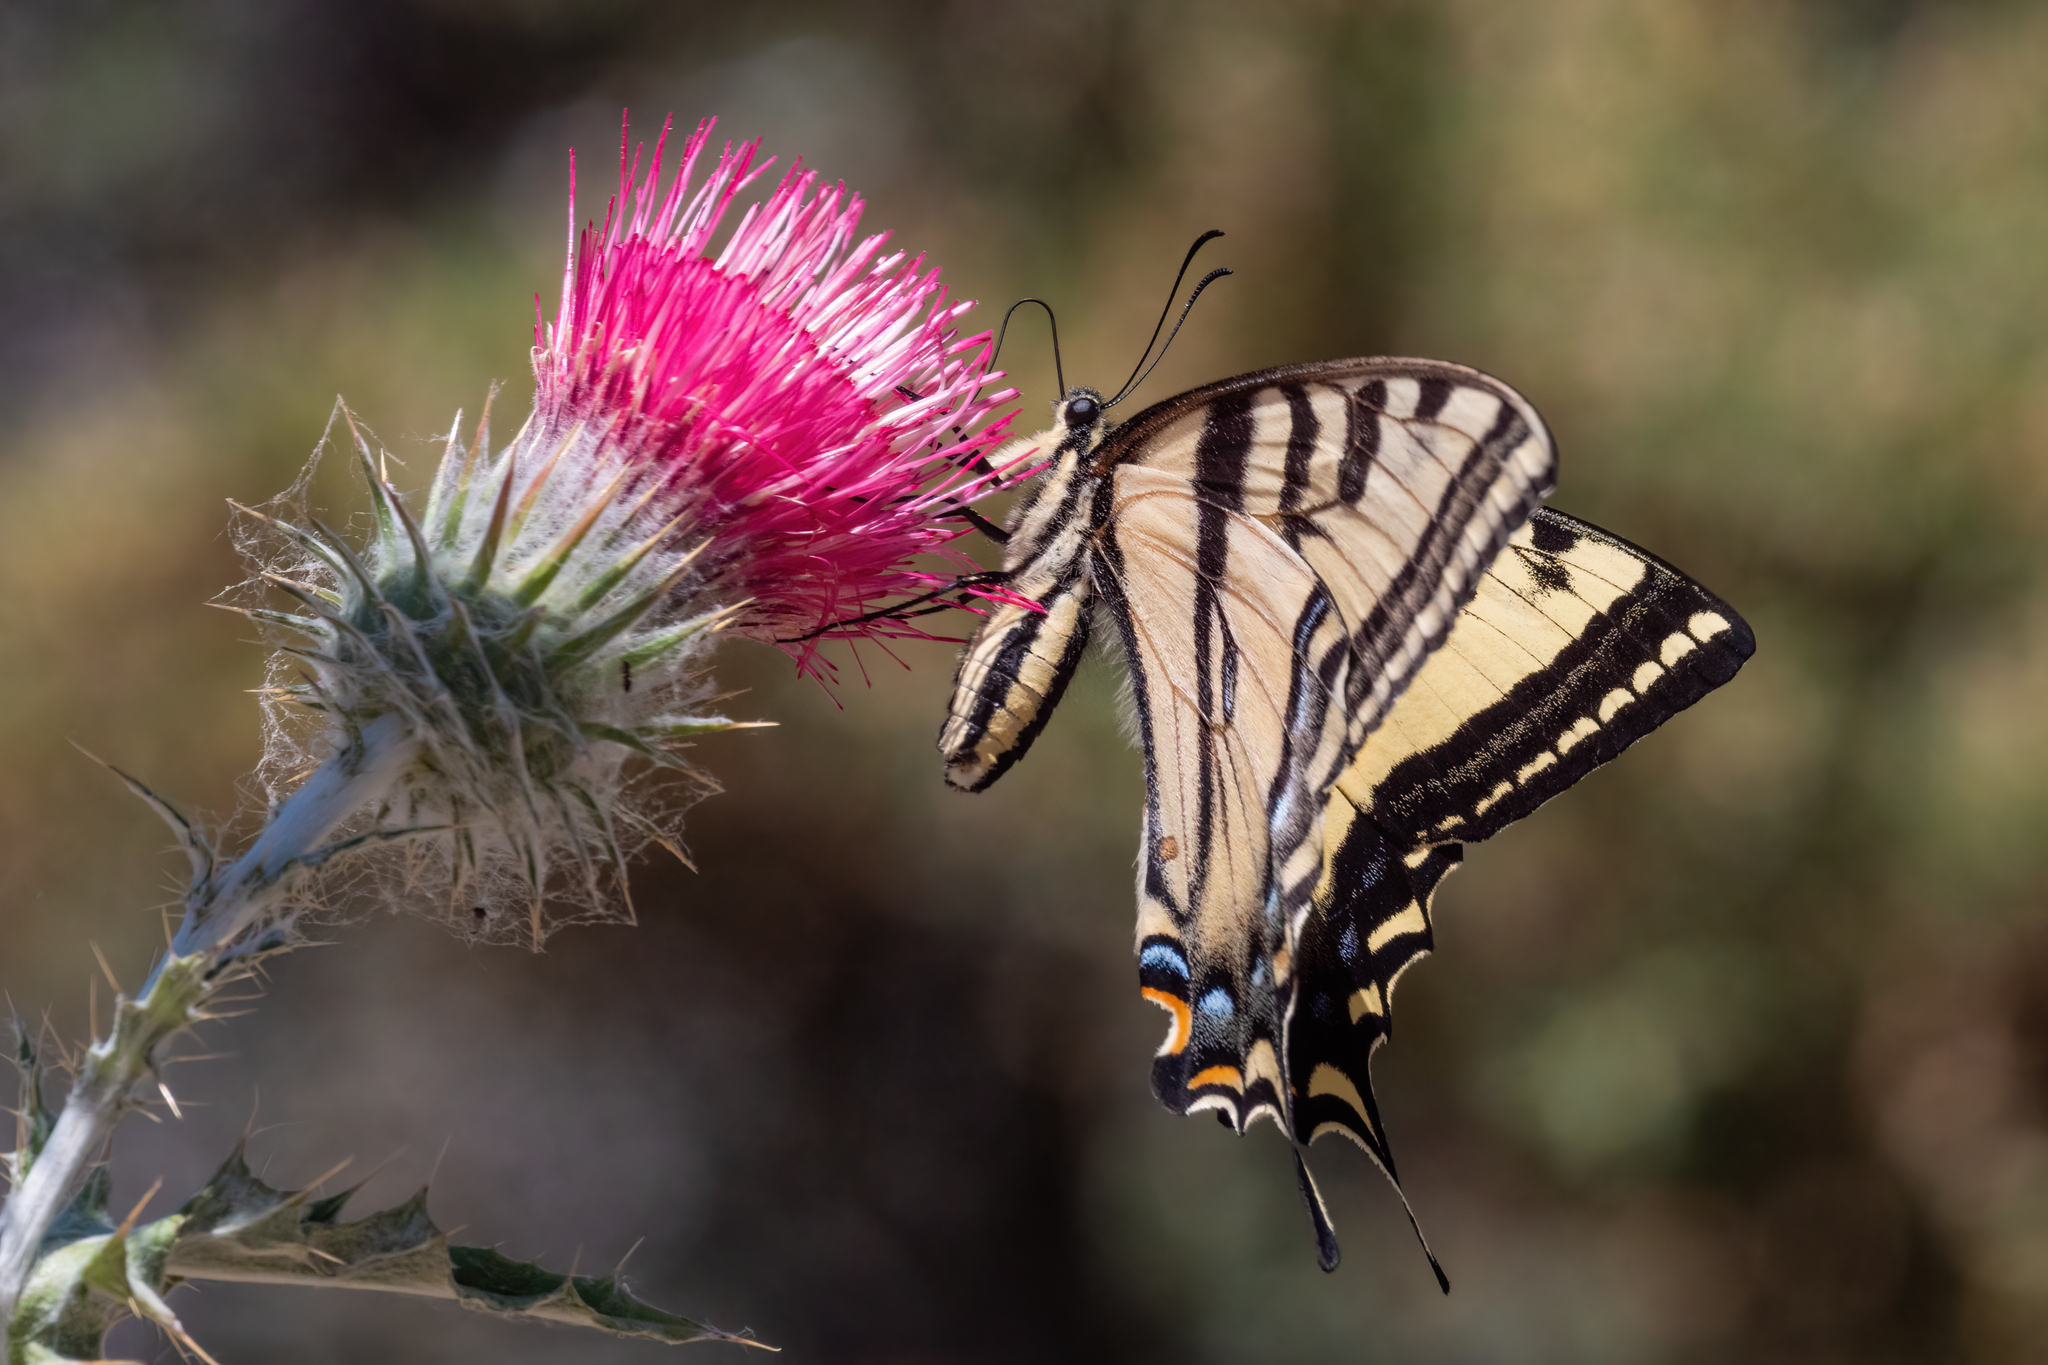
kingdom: Animalia
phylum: Arthropoda
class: Insecta
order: Lepidoptera
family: Papilionidae
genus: Papilio
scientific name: Papilio rutulus
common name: Western tiger swallowtail
